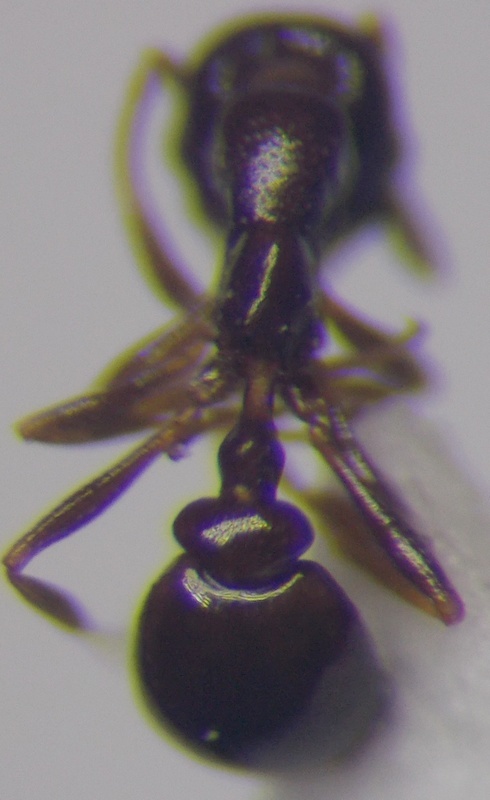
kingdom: Animalia
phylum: Arthropoda
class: Insecta
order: Hymenoptera
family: Formicidae
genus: Cardiocondyla
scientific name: Cardiocondyla ulianini
